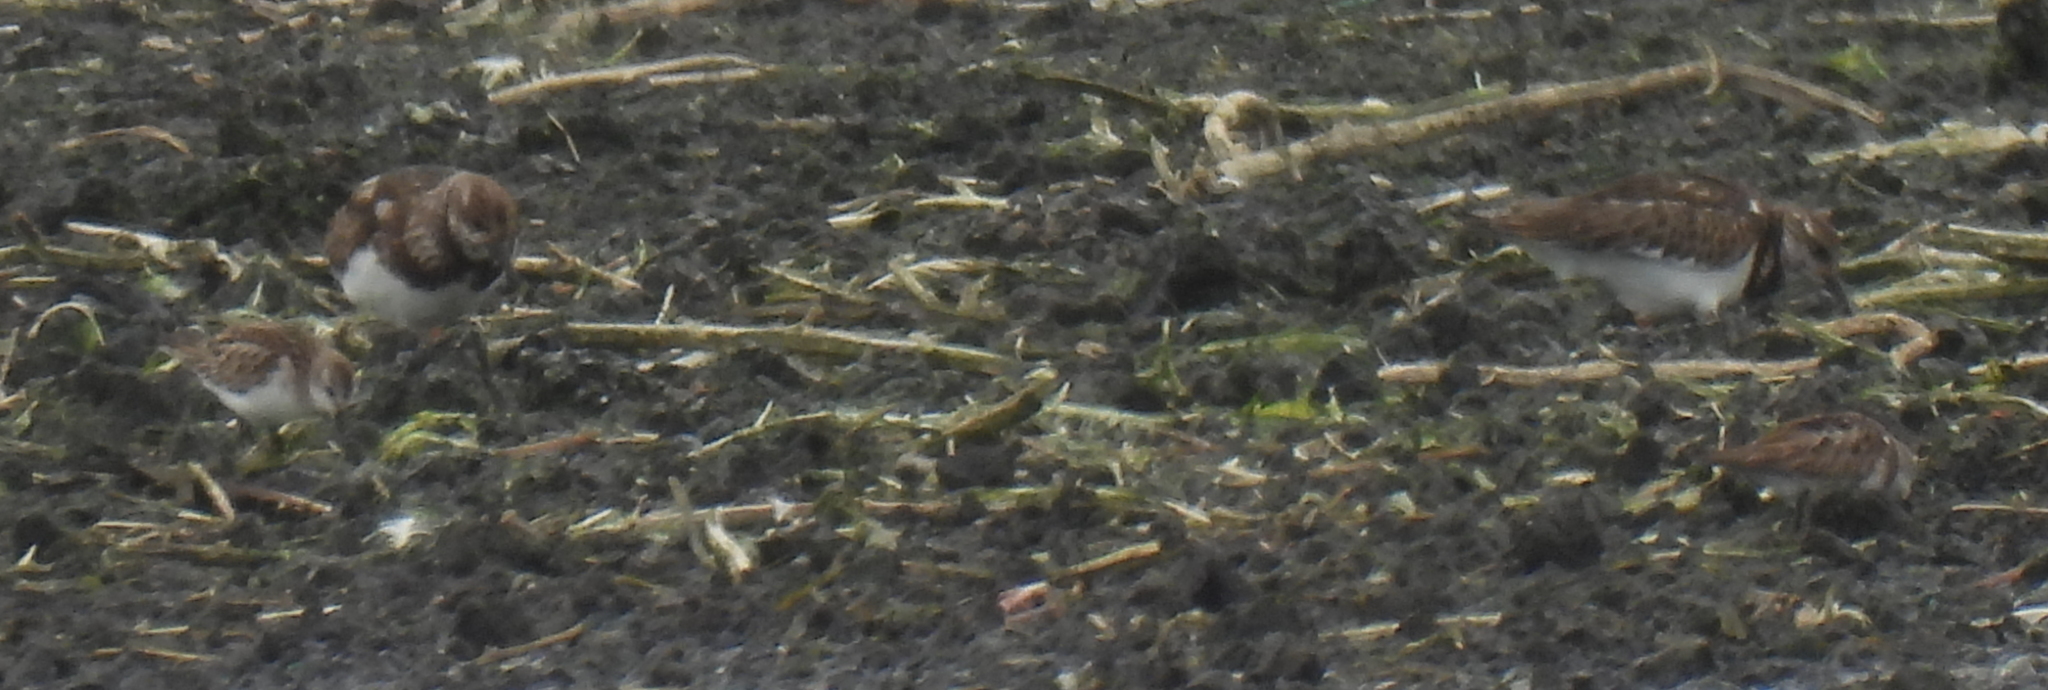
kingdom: Animalia
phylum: Chordata
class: Aves
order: Charadriiformes
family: Scolopacidae
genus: Arenaria
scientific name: Arenaria interpres
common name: Ruddy turnstone
